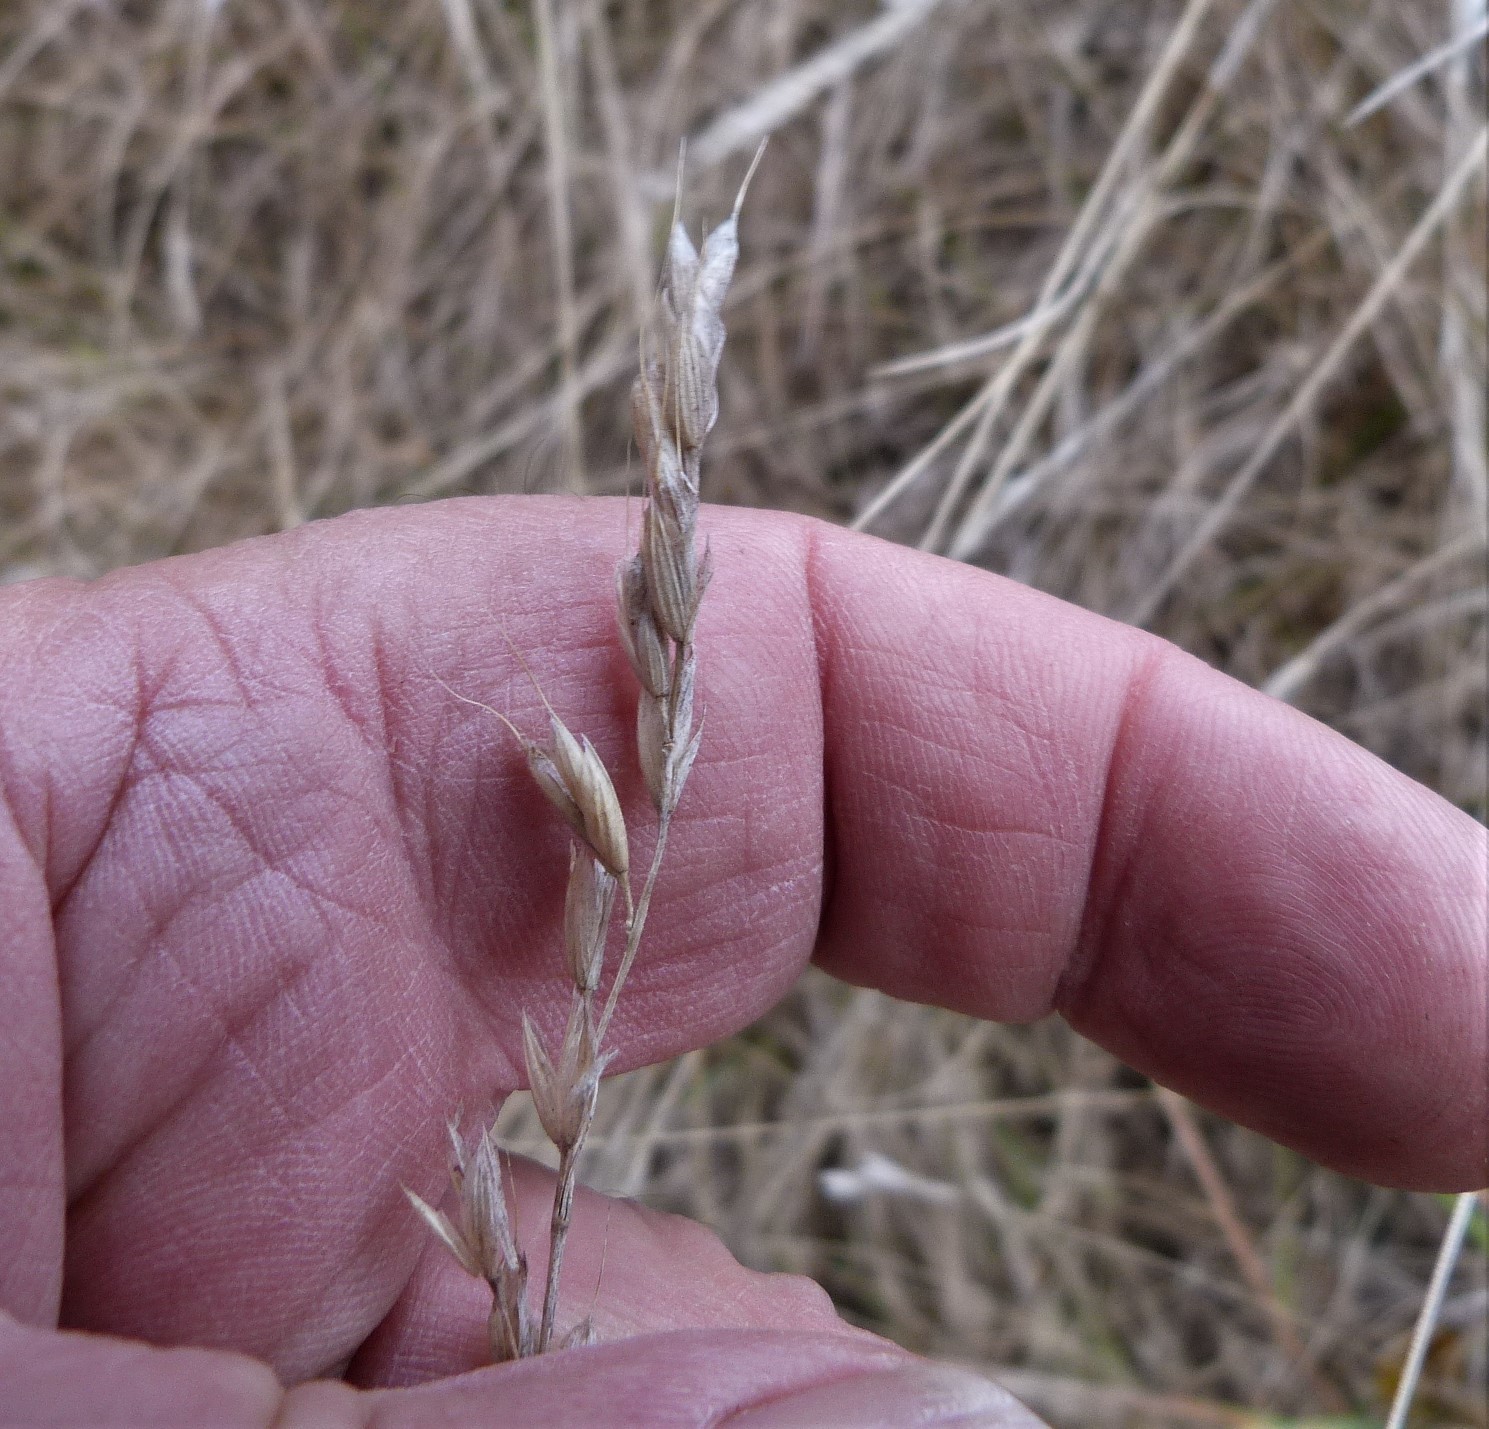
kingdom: Plantae
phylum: Tracheophyta
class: Liliopsida
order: Poales
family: Poaceae
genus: Bromus
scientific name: Bromus hordeaceus
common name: Soft brome
